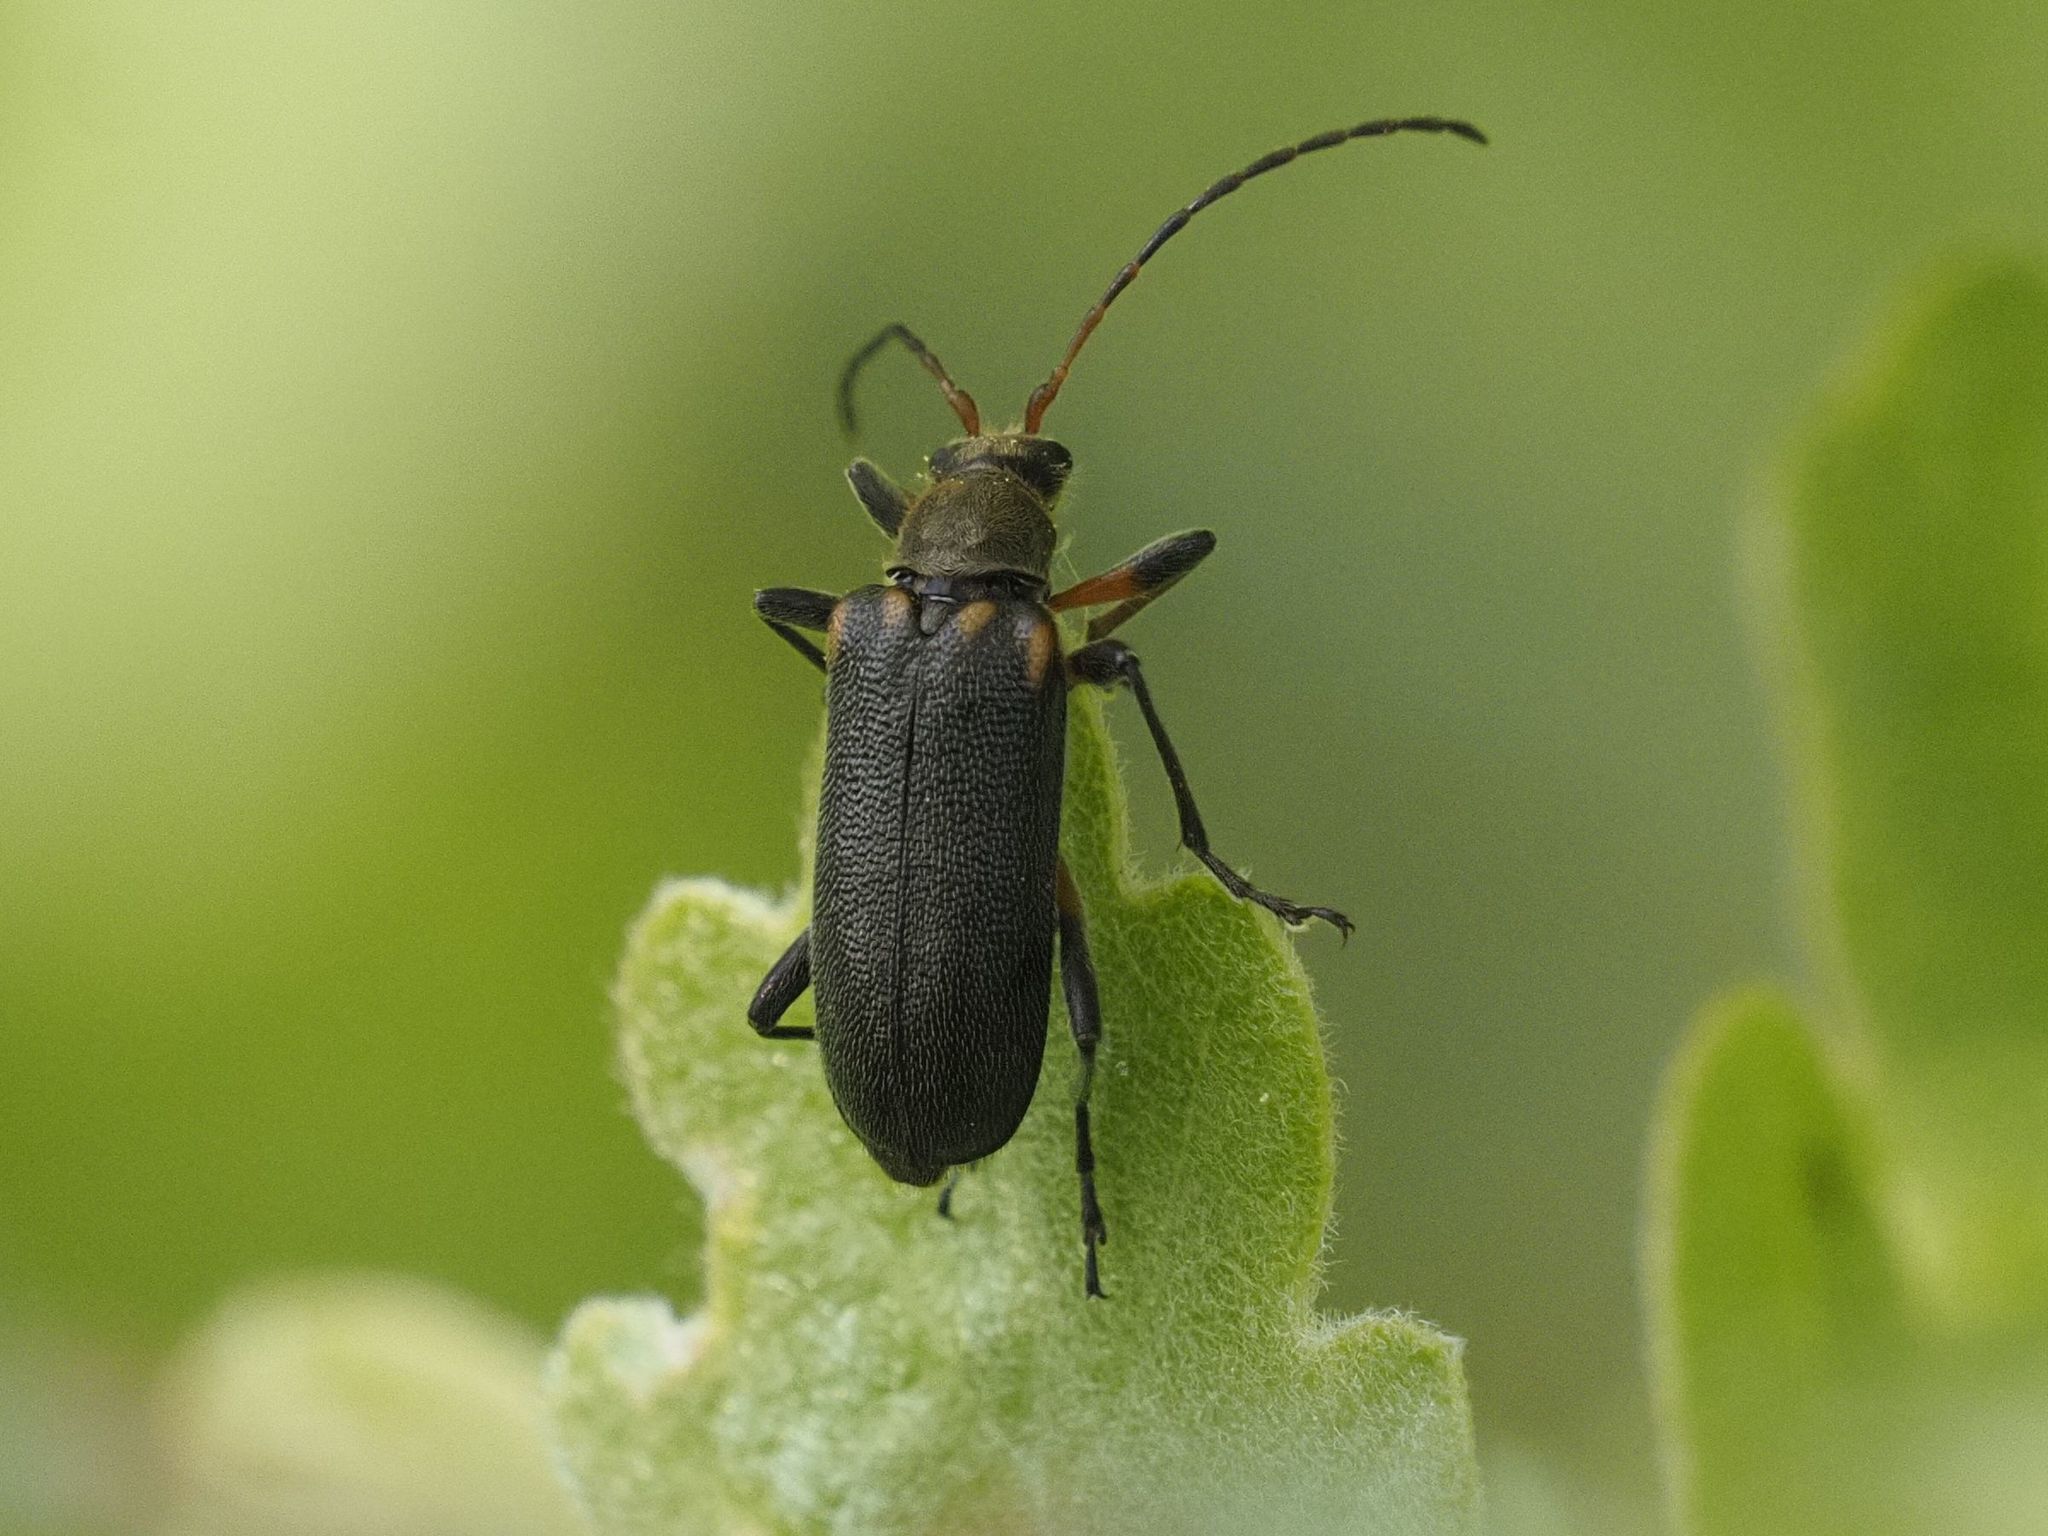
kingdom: Animalia
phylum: Arthropoda
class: Insecta
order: Coleoptera
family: Cerambycidae
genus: Cortodera
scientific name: Cortodera humeralis
